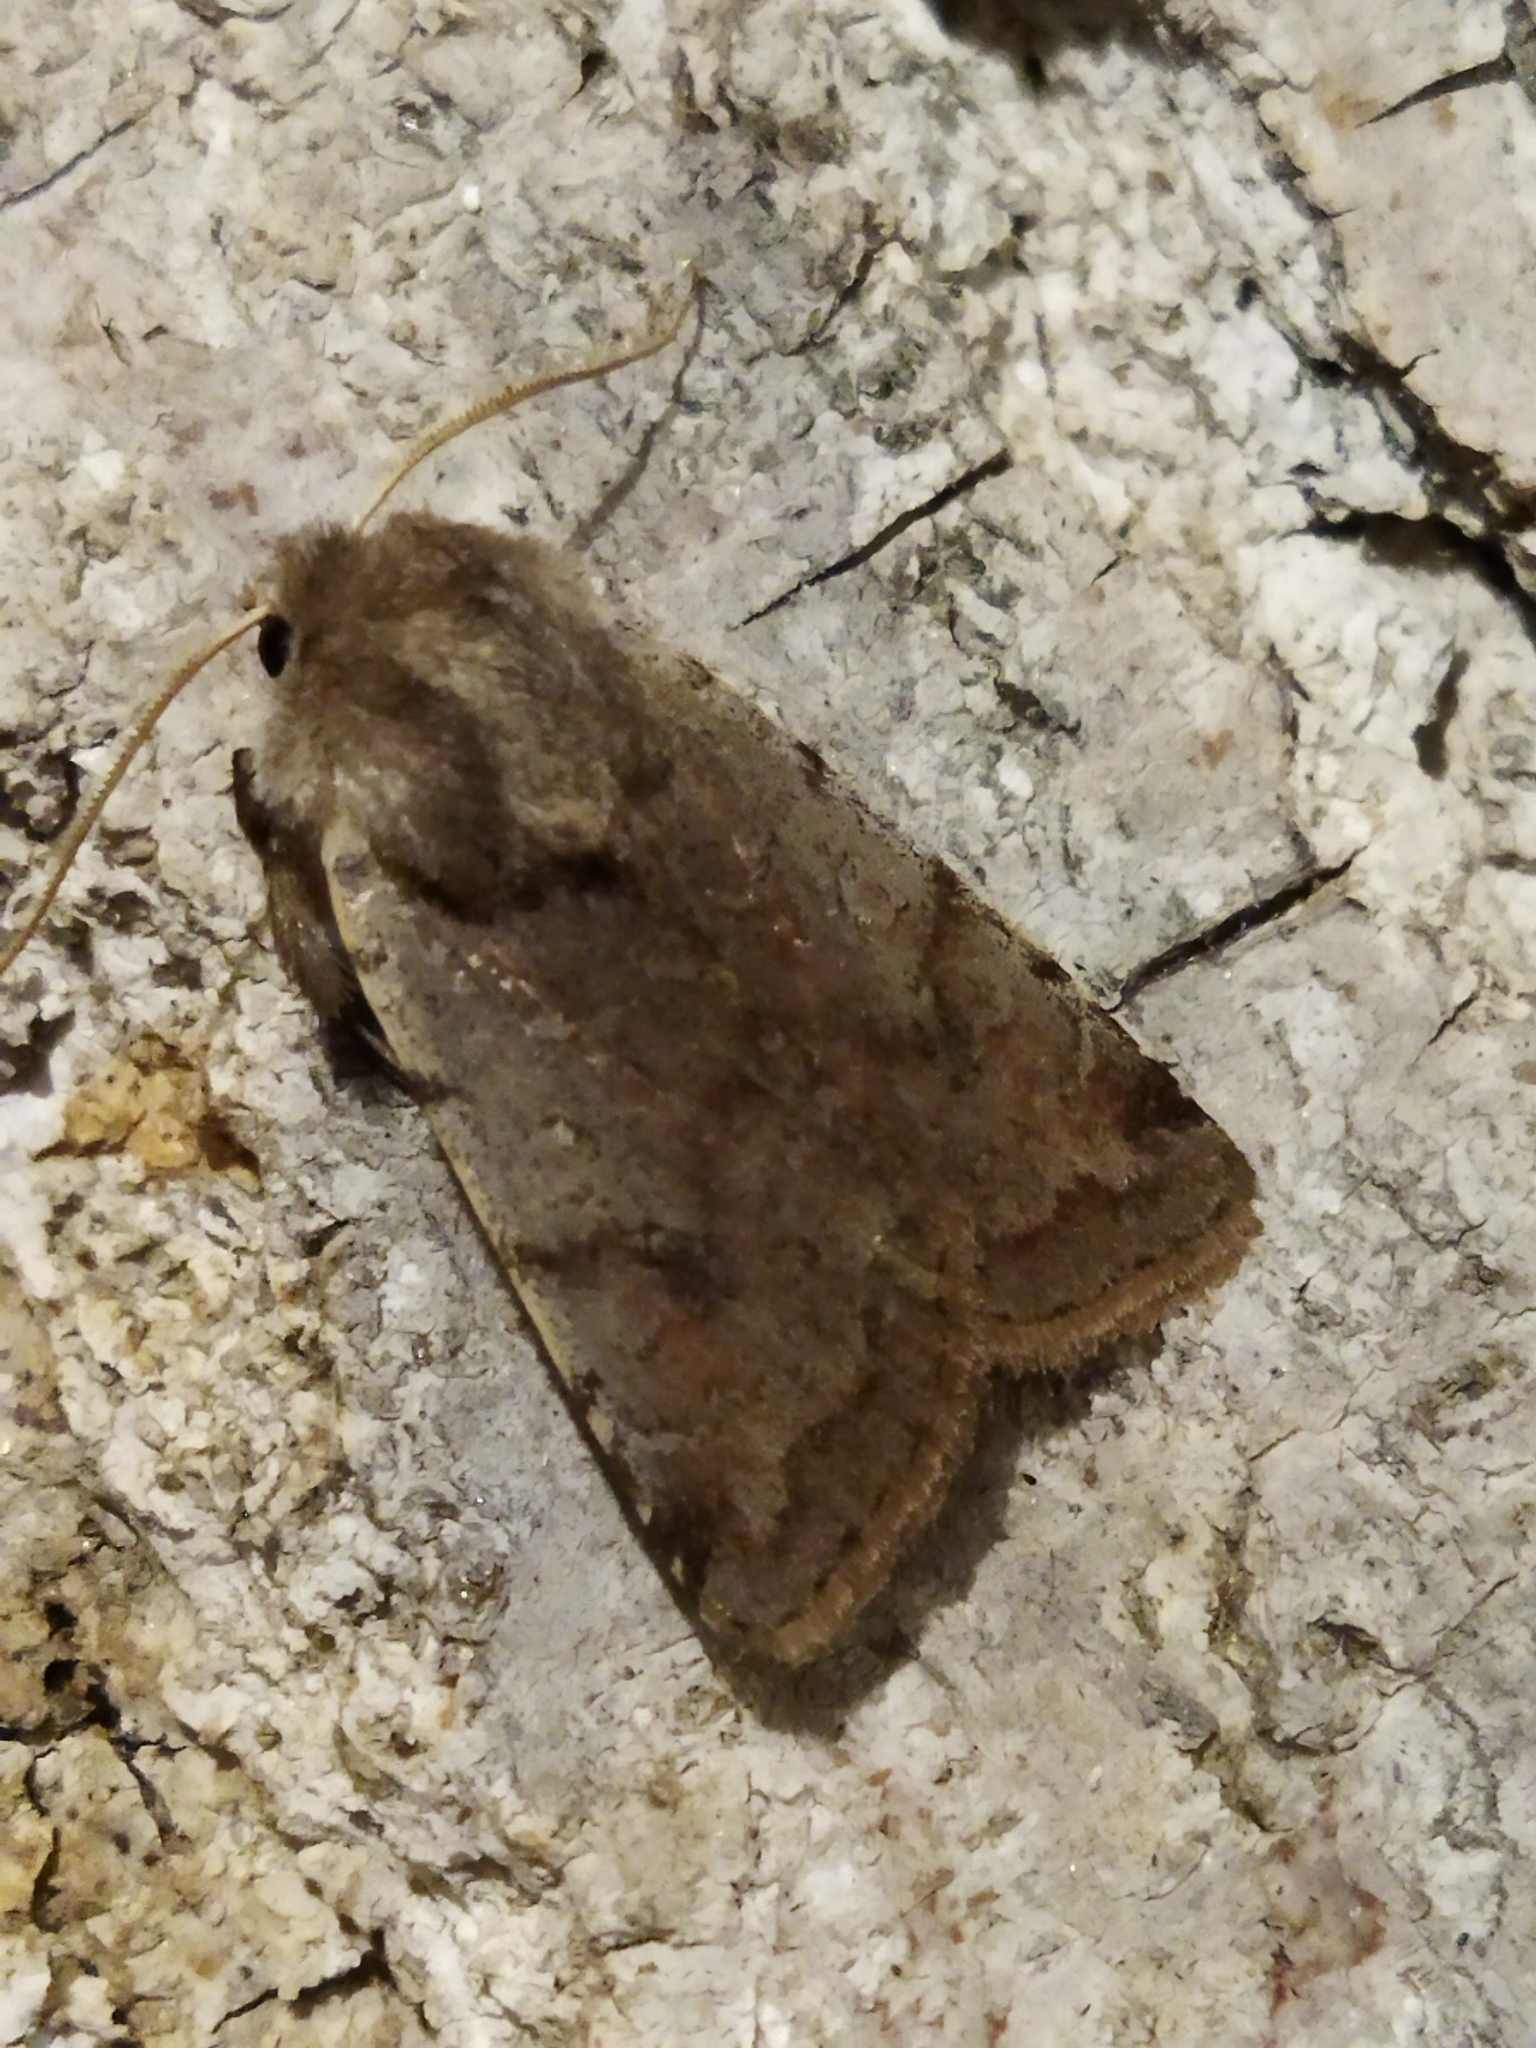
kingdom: Animalia
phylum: Arthropoda
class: Insecta
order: Lepidoptera
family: Noctuidae
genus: Cerastis
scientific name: Cerastis rubricosa
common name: Red chestnut
